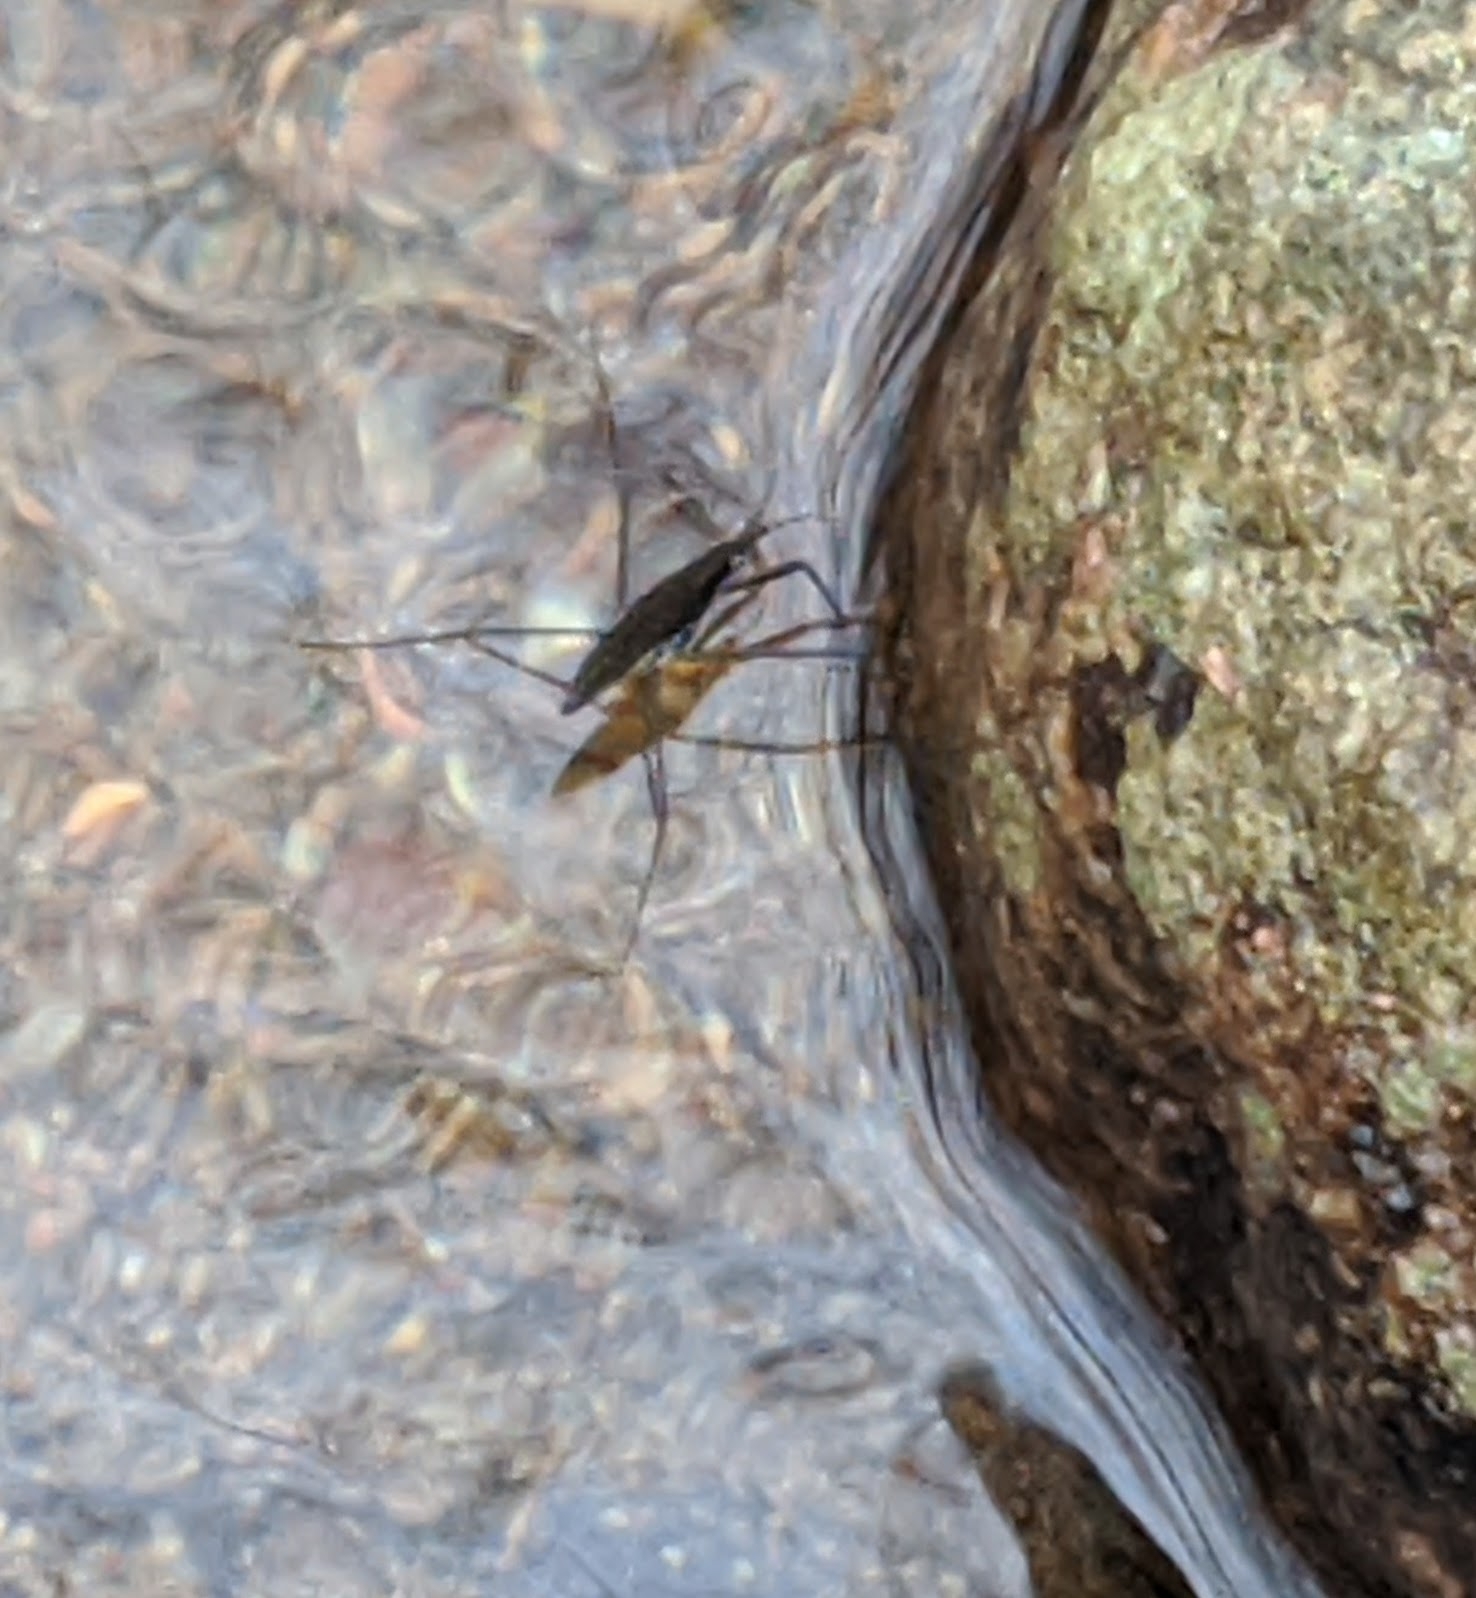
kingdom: Animalia
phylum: Arthropoda
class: Insecta
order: Hemiptera
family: Gerridae
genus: Aquarius
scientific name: Aquarius remigis
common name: Common water strider
